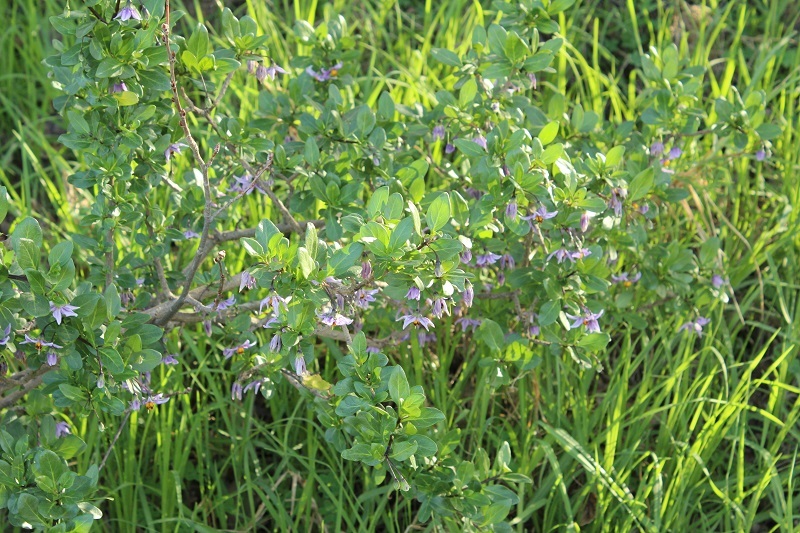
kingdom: Plantae
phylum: Tracheophyta
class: Magnoliopsida
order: Solanales
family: Solanaceae
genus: Solanum
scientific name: Solanum guineense
